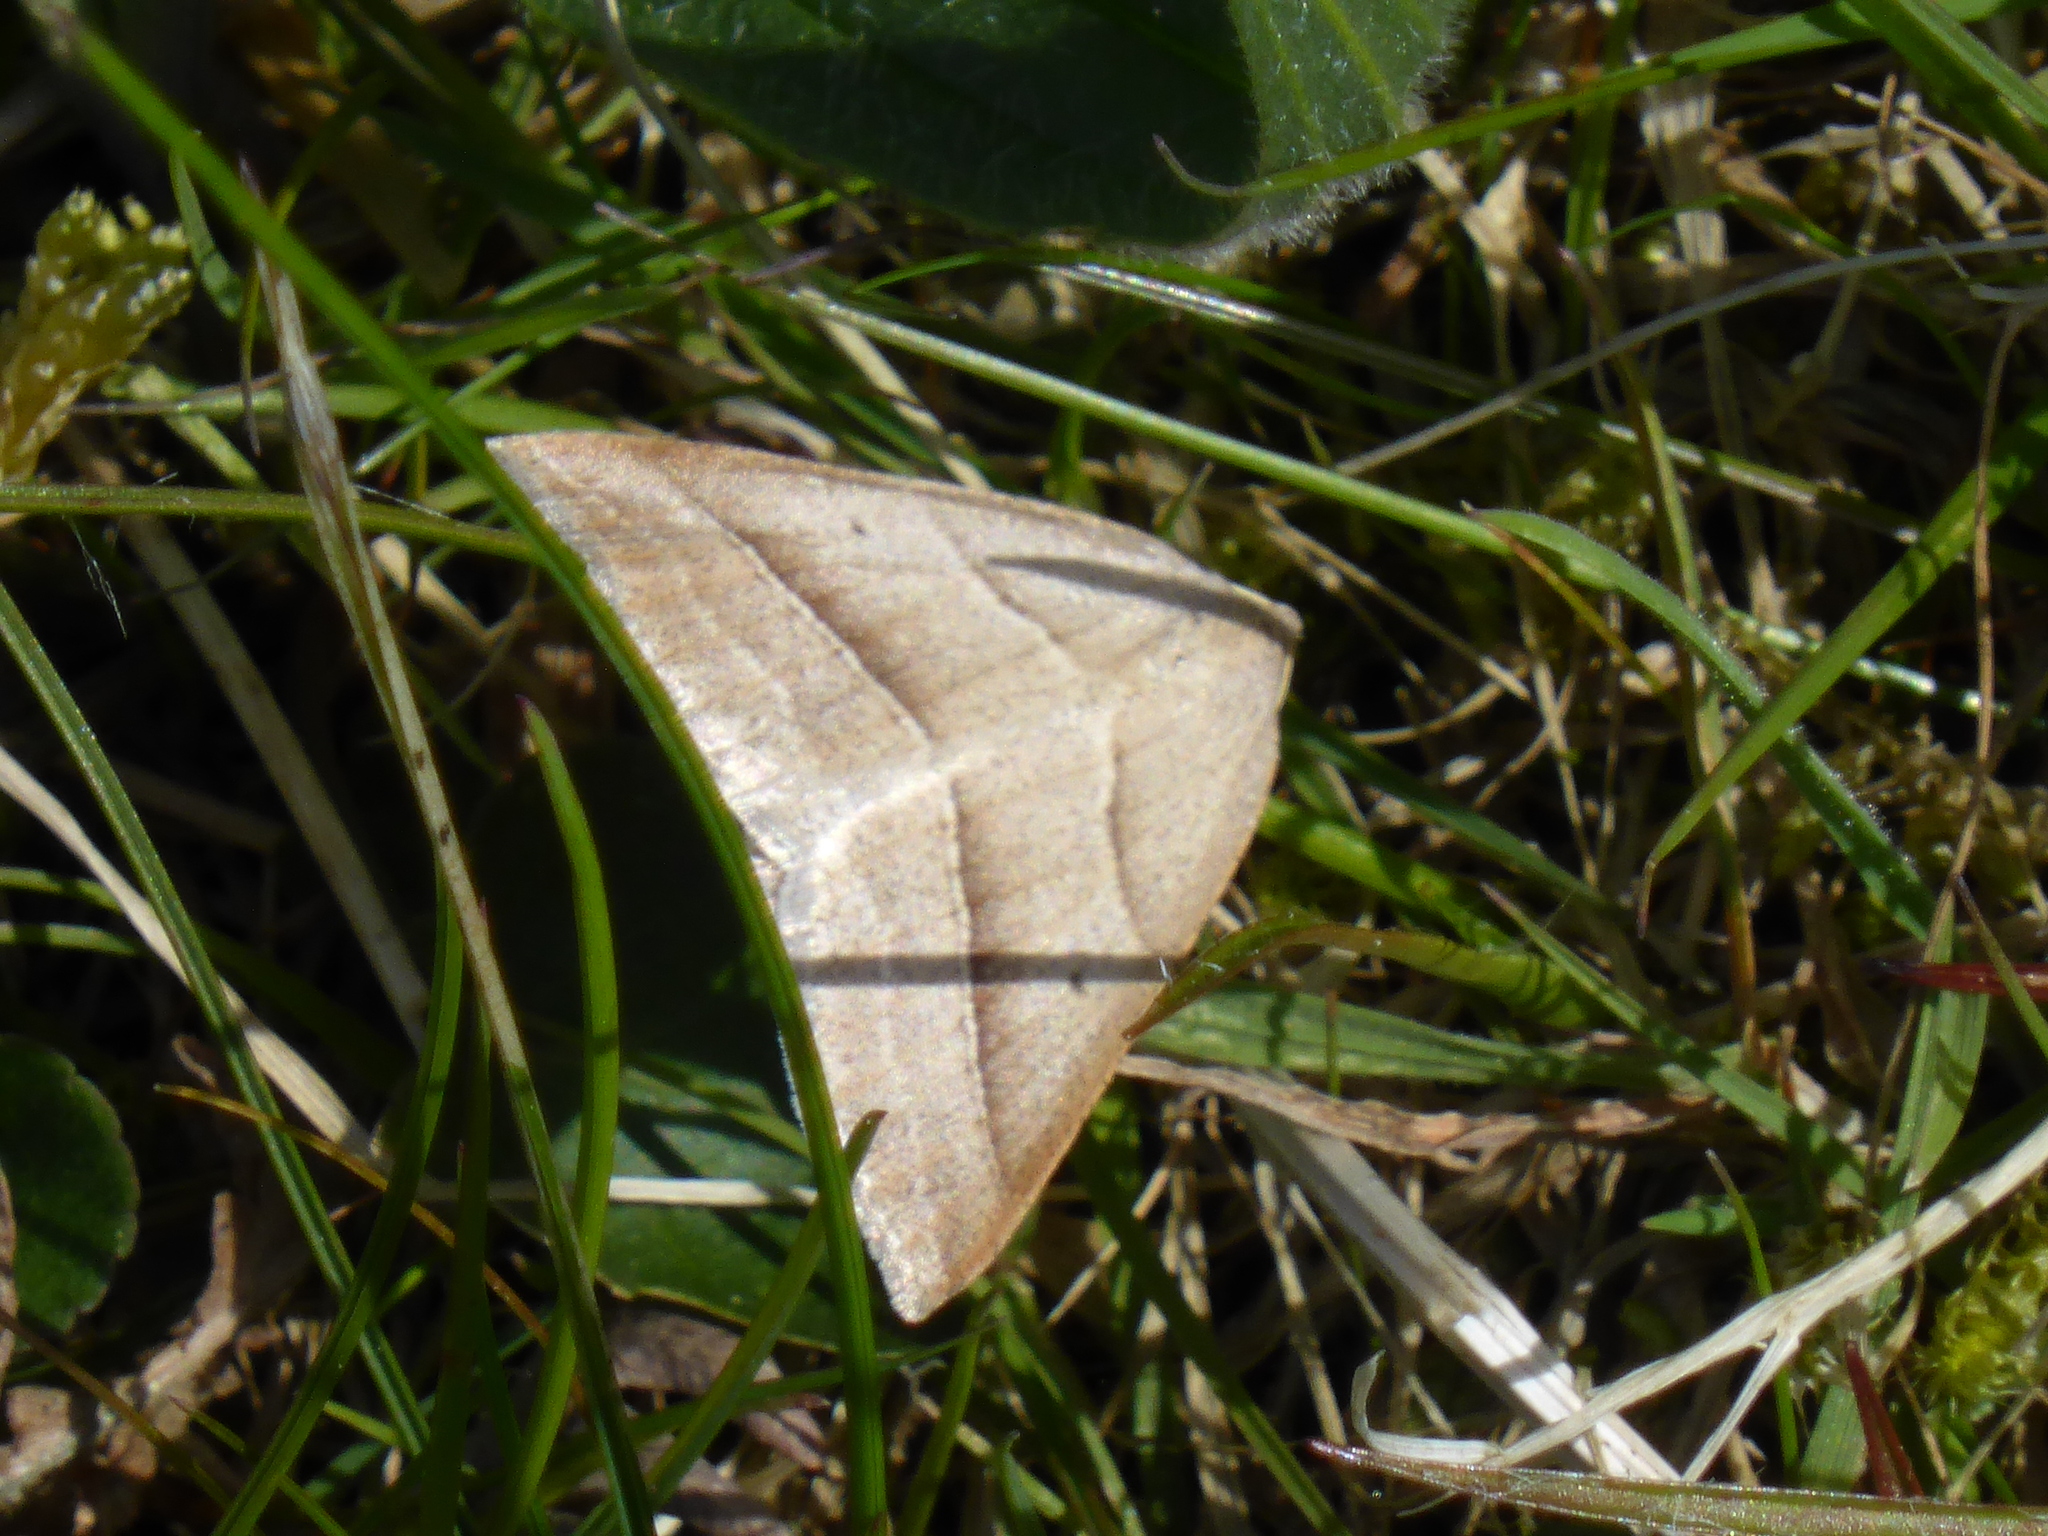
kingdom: Animalia
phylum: Arthropoda
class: Insecta
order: Lepidoptera
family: Pterophoridae
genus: Pterophorus
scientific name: Pterophorus Petrophora chlorosata
